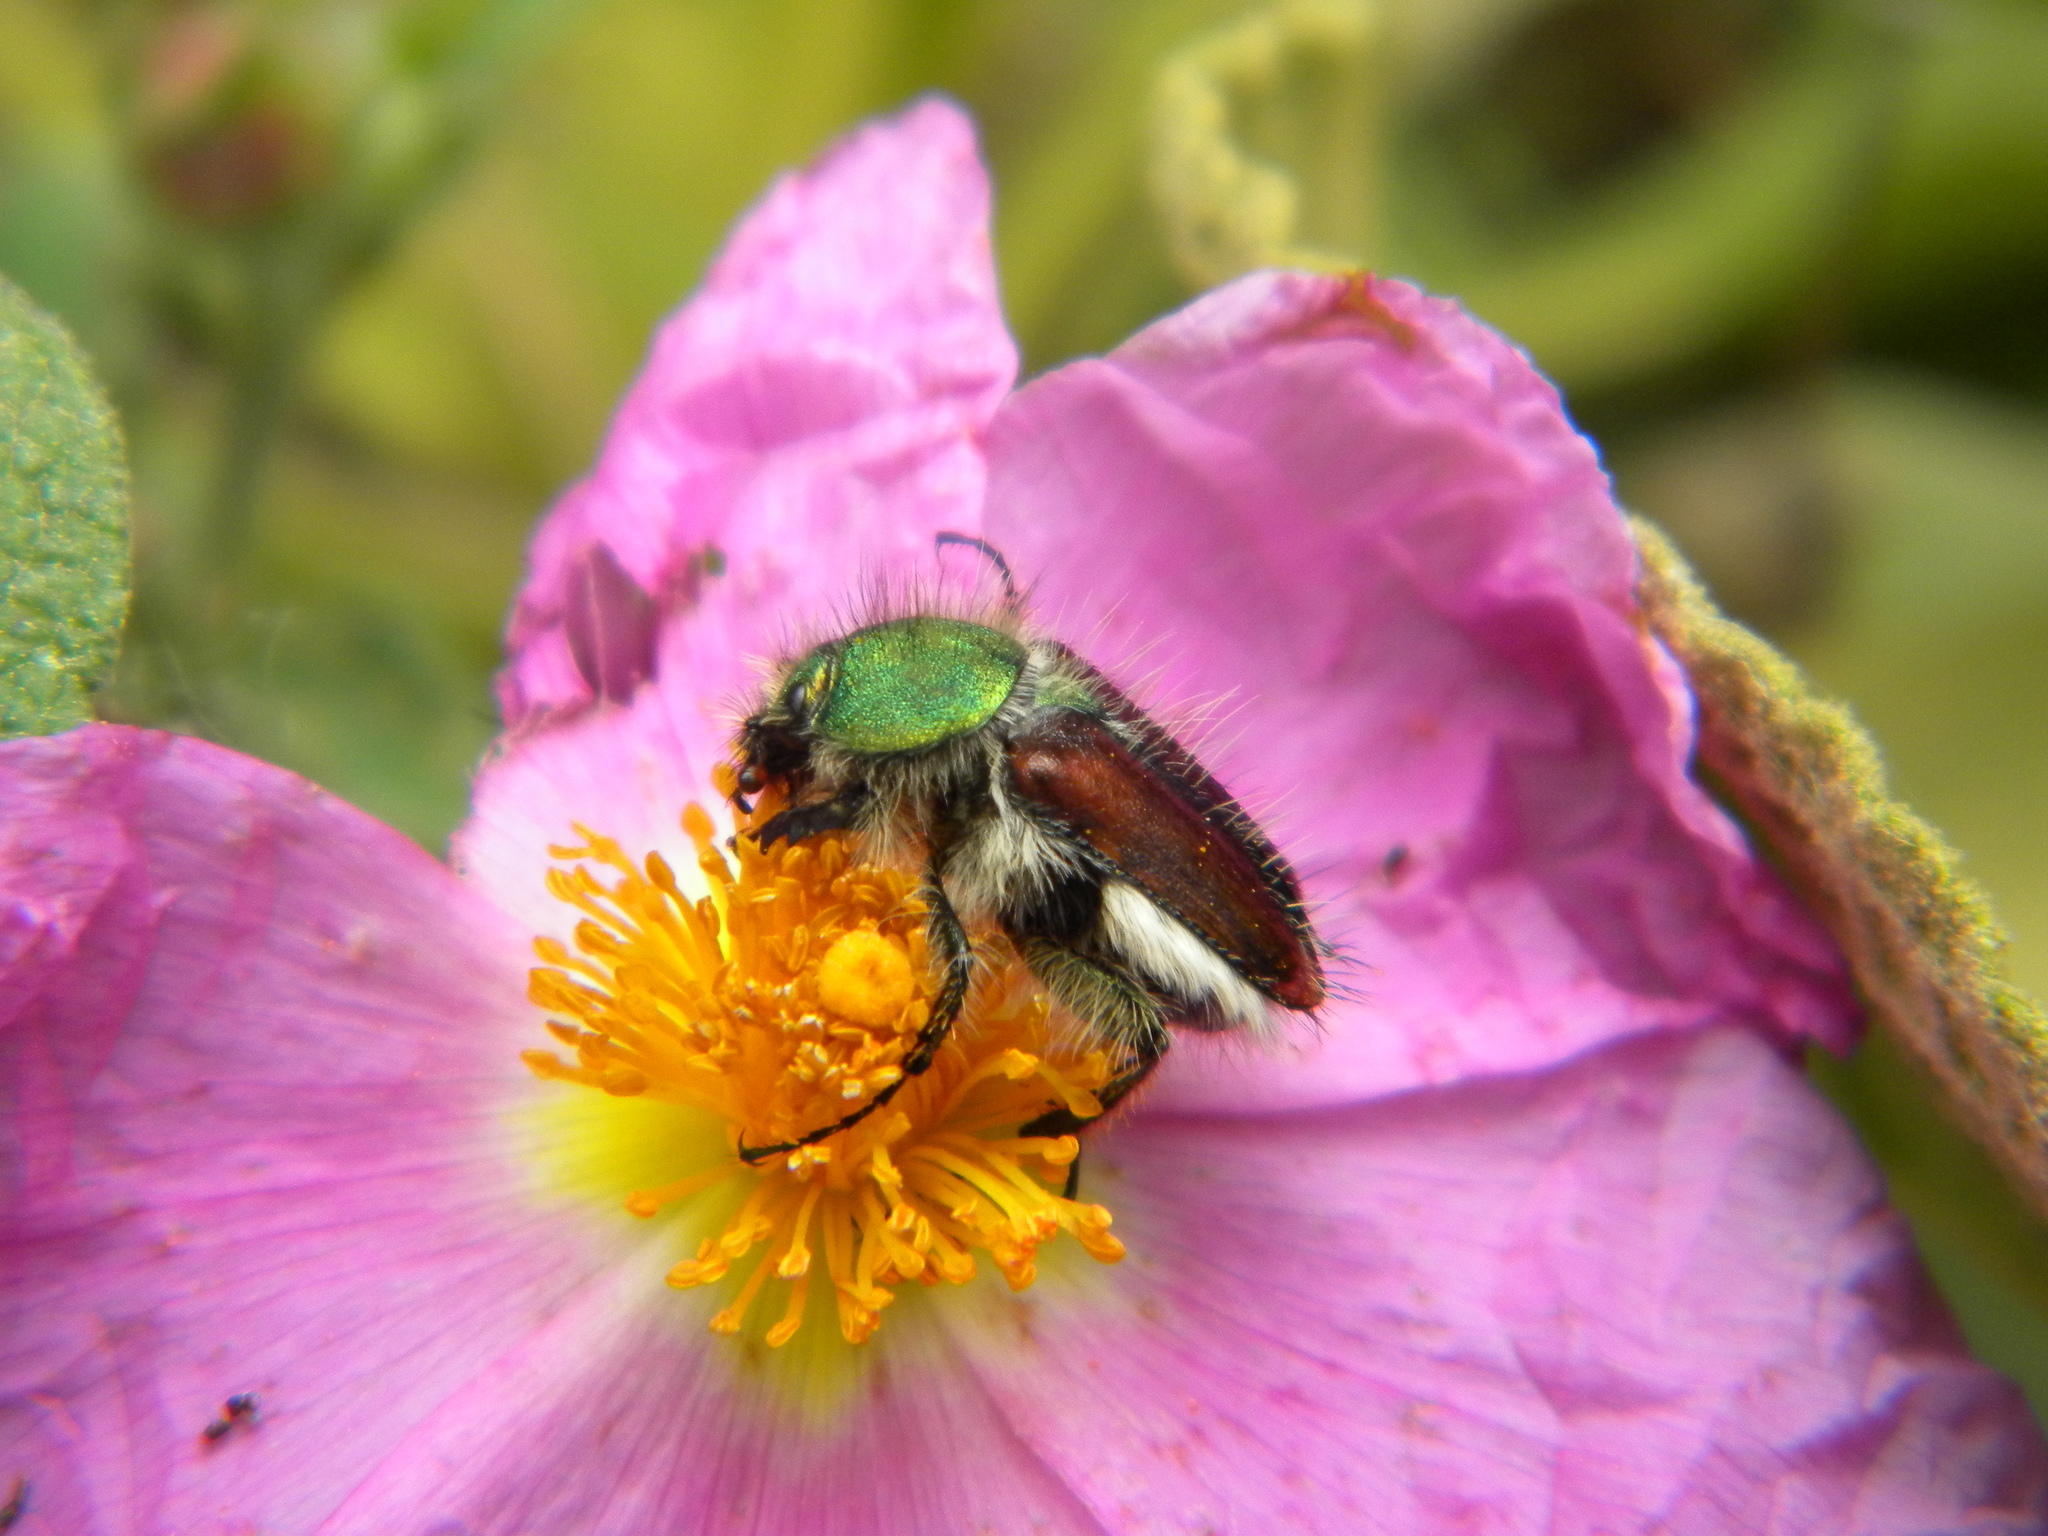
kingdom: Animalia
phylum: Arthropoda
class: Insecta
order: Coleoptera
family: Glaphyridae
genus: Pygopleurus
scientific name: Pygopleurus foina
